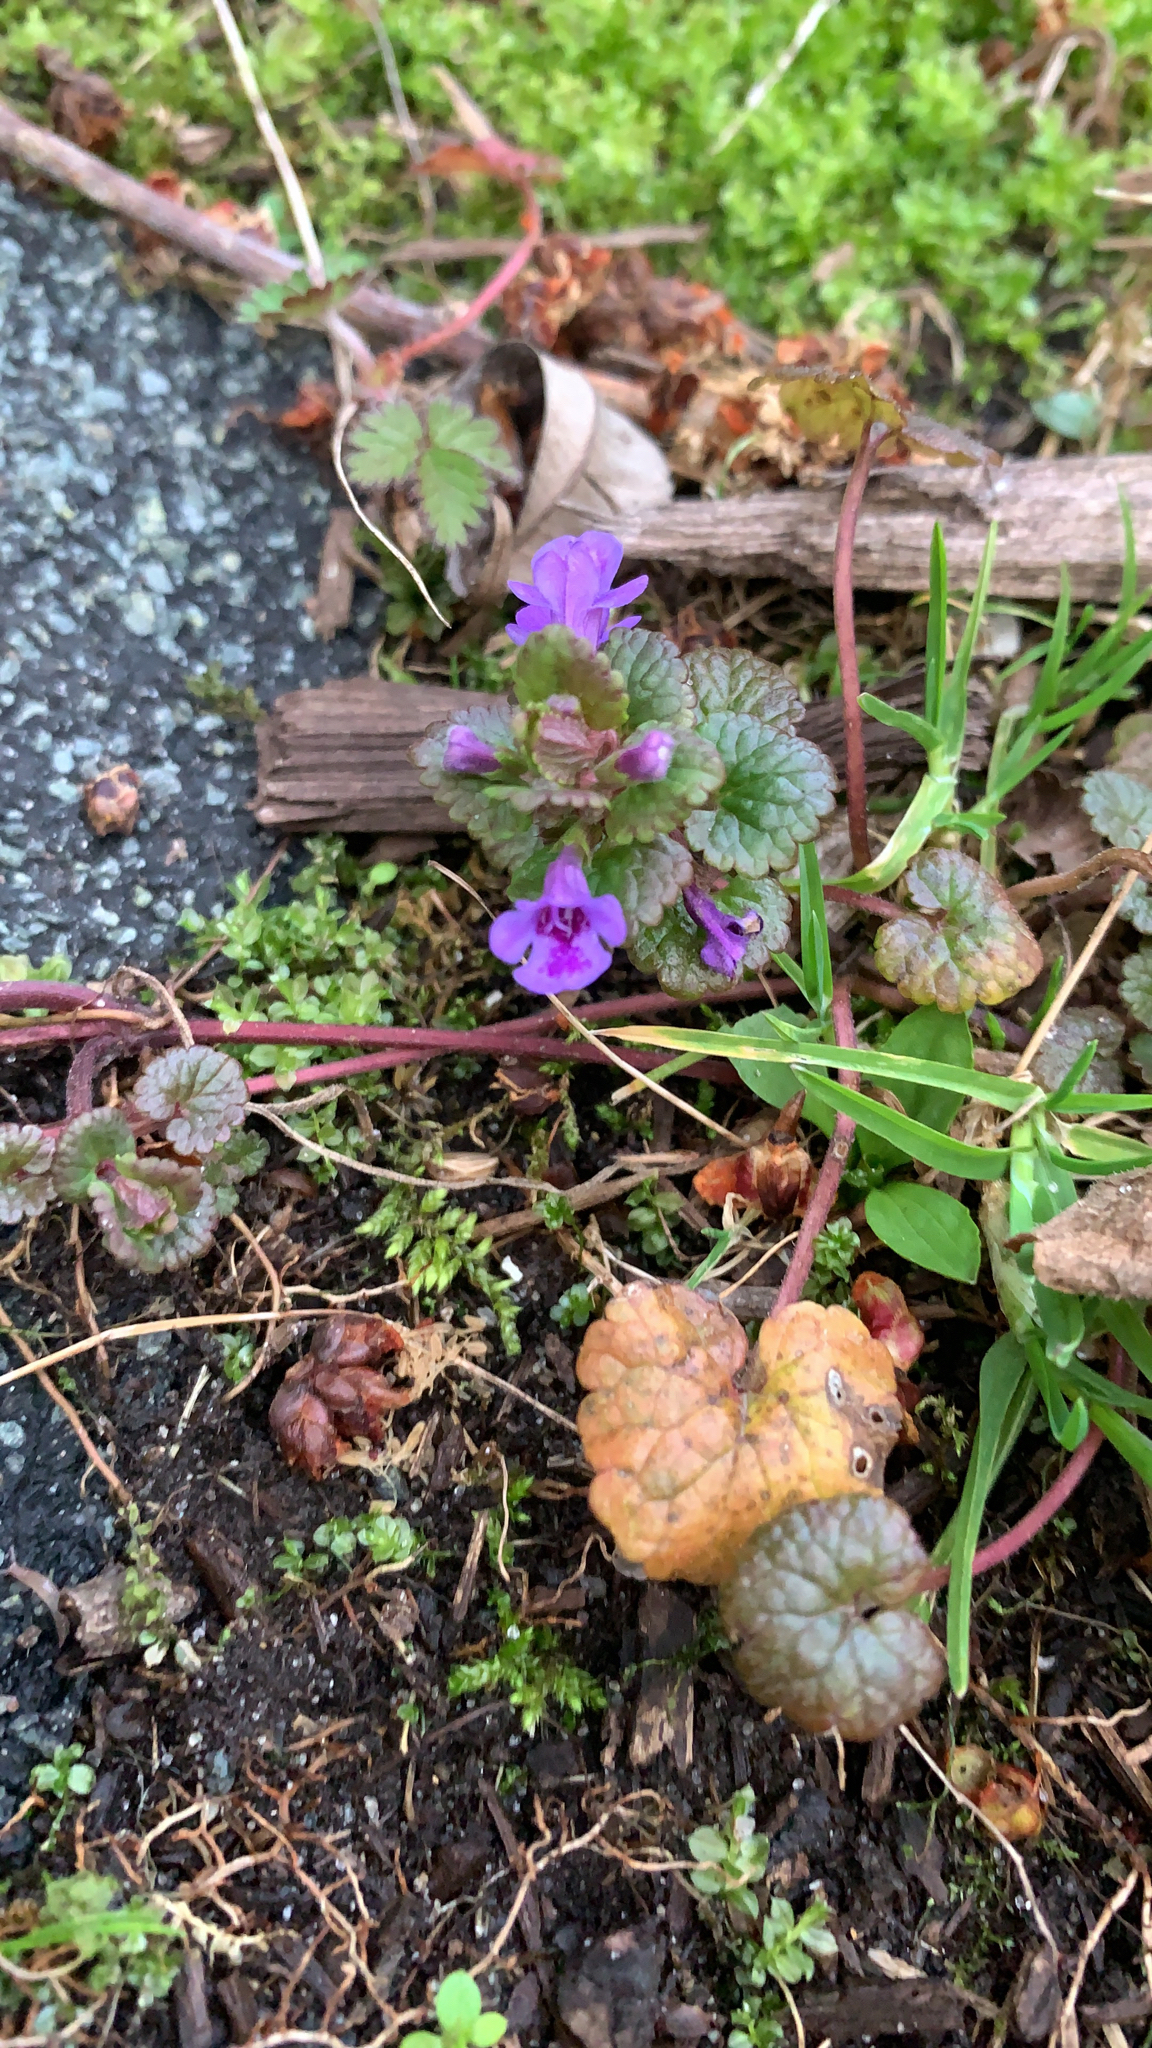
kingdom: Plantae
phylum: Tracheophyta
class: Magnoliopsida
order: Lamiales
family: Lamiaceae
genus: Glechoma
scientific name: Glechoma hederacea
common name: Ground ivy
